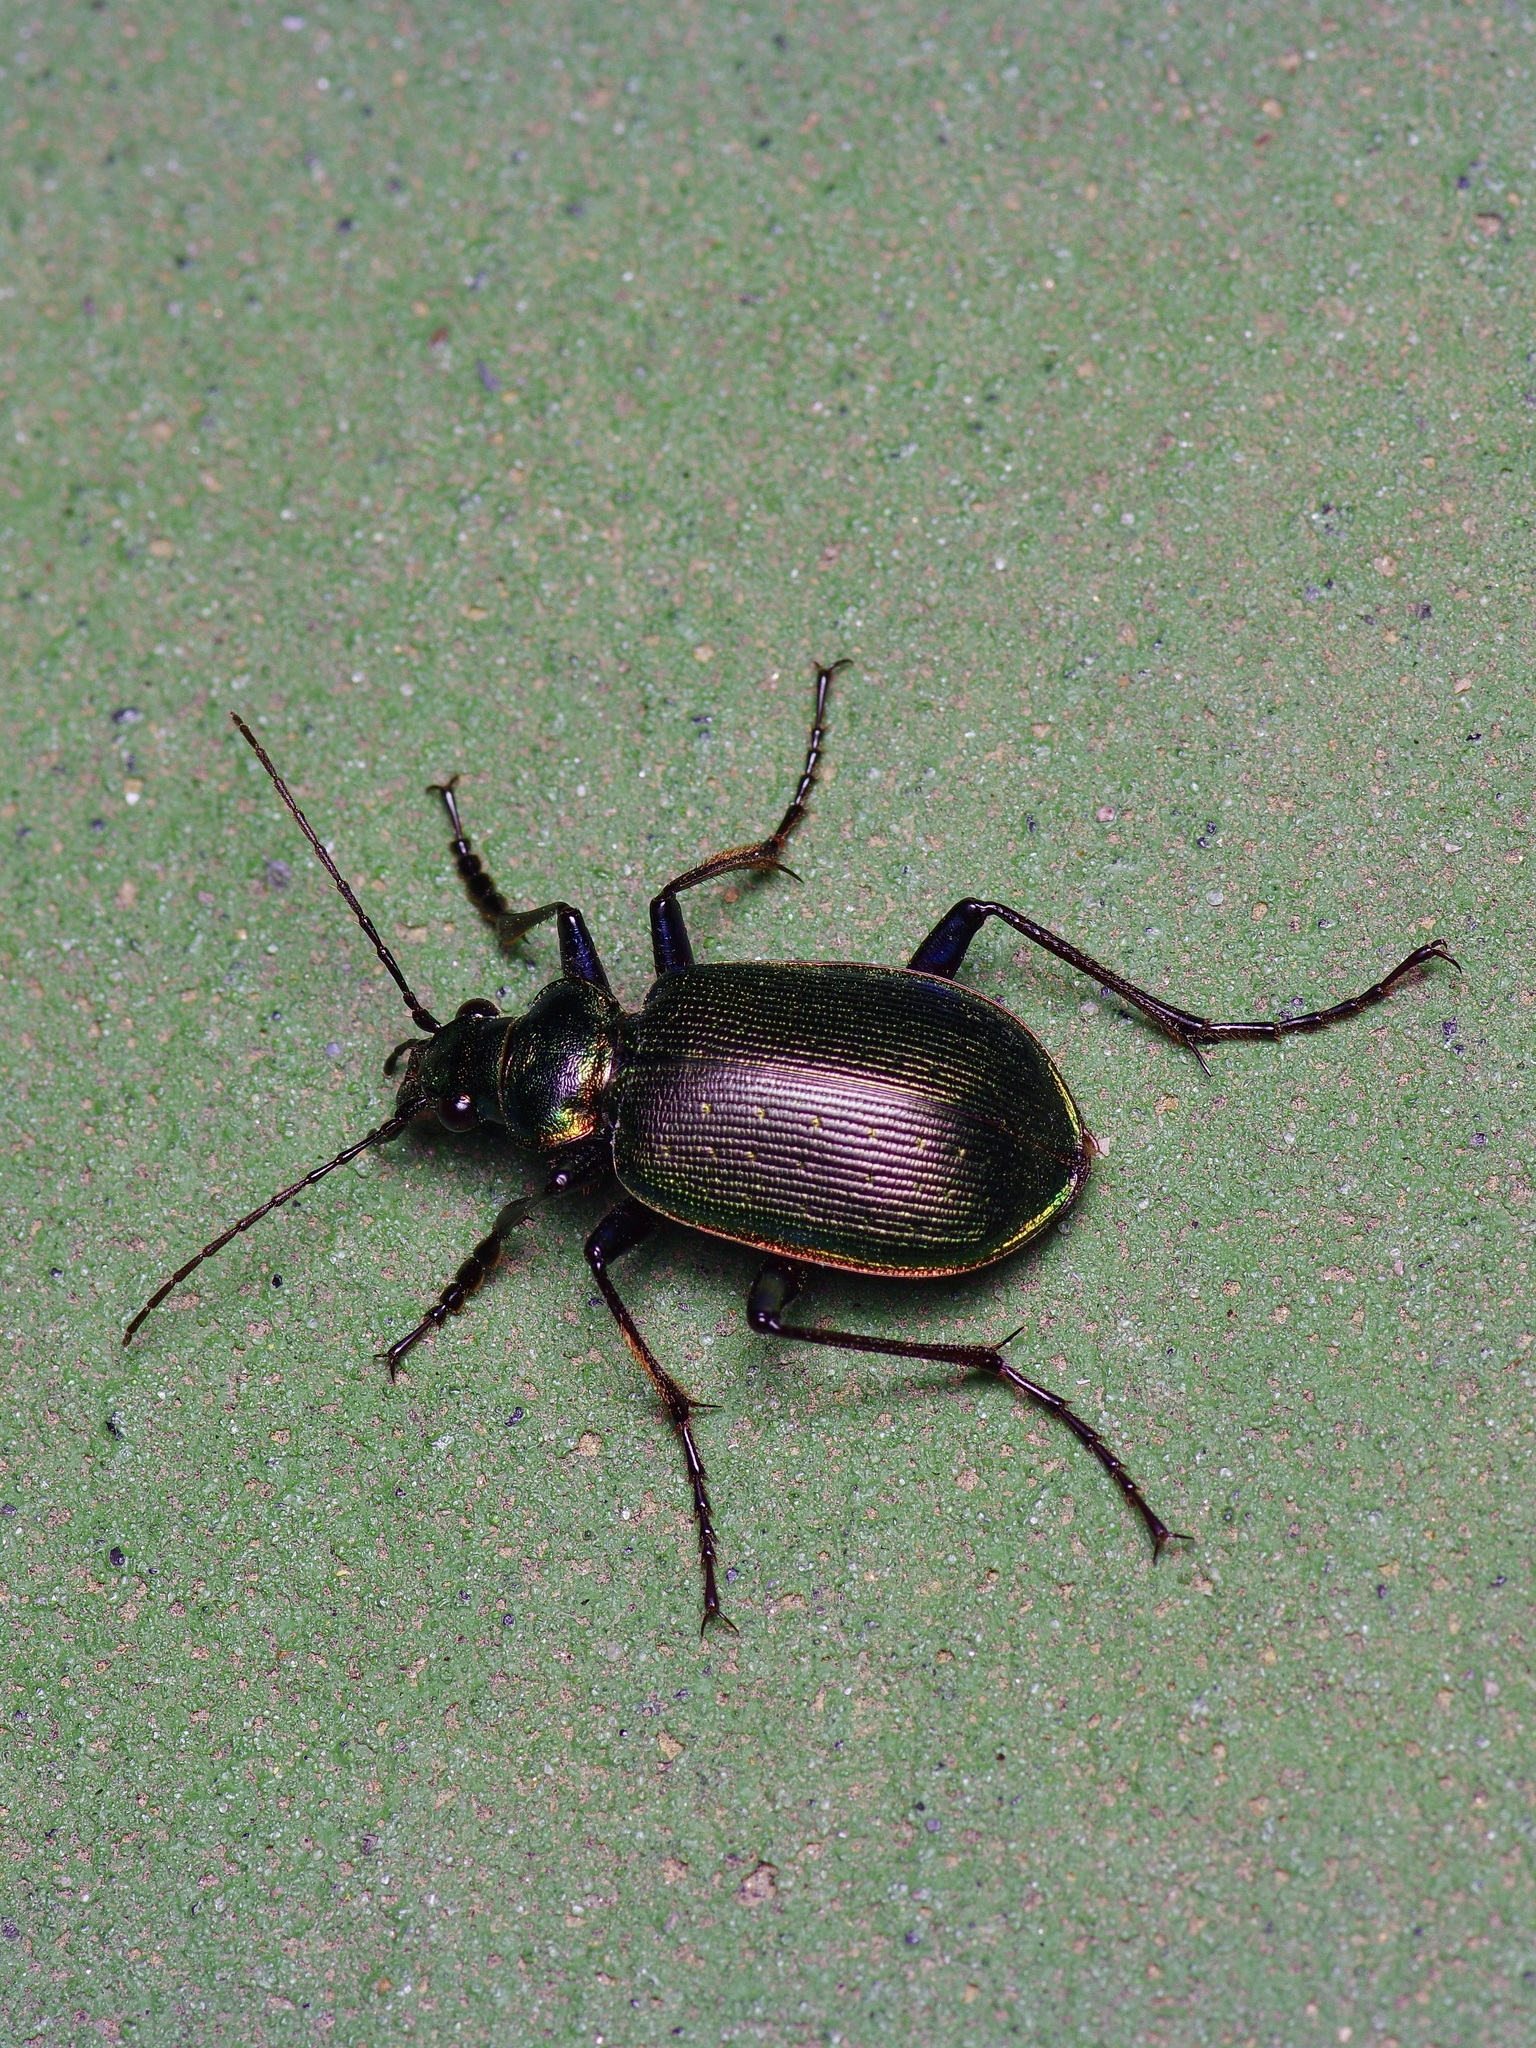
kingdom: Animalia
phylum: Arthropoda
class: Insecta
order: Coleoptera
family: Carabidae
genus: Calosoma
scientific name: Calosoma wilcoxi
